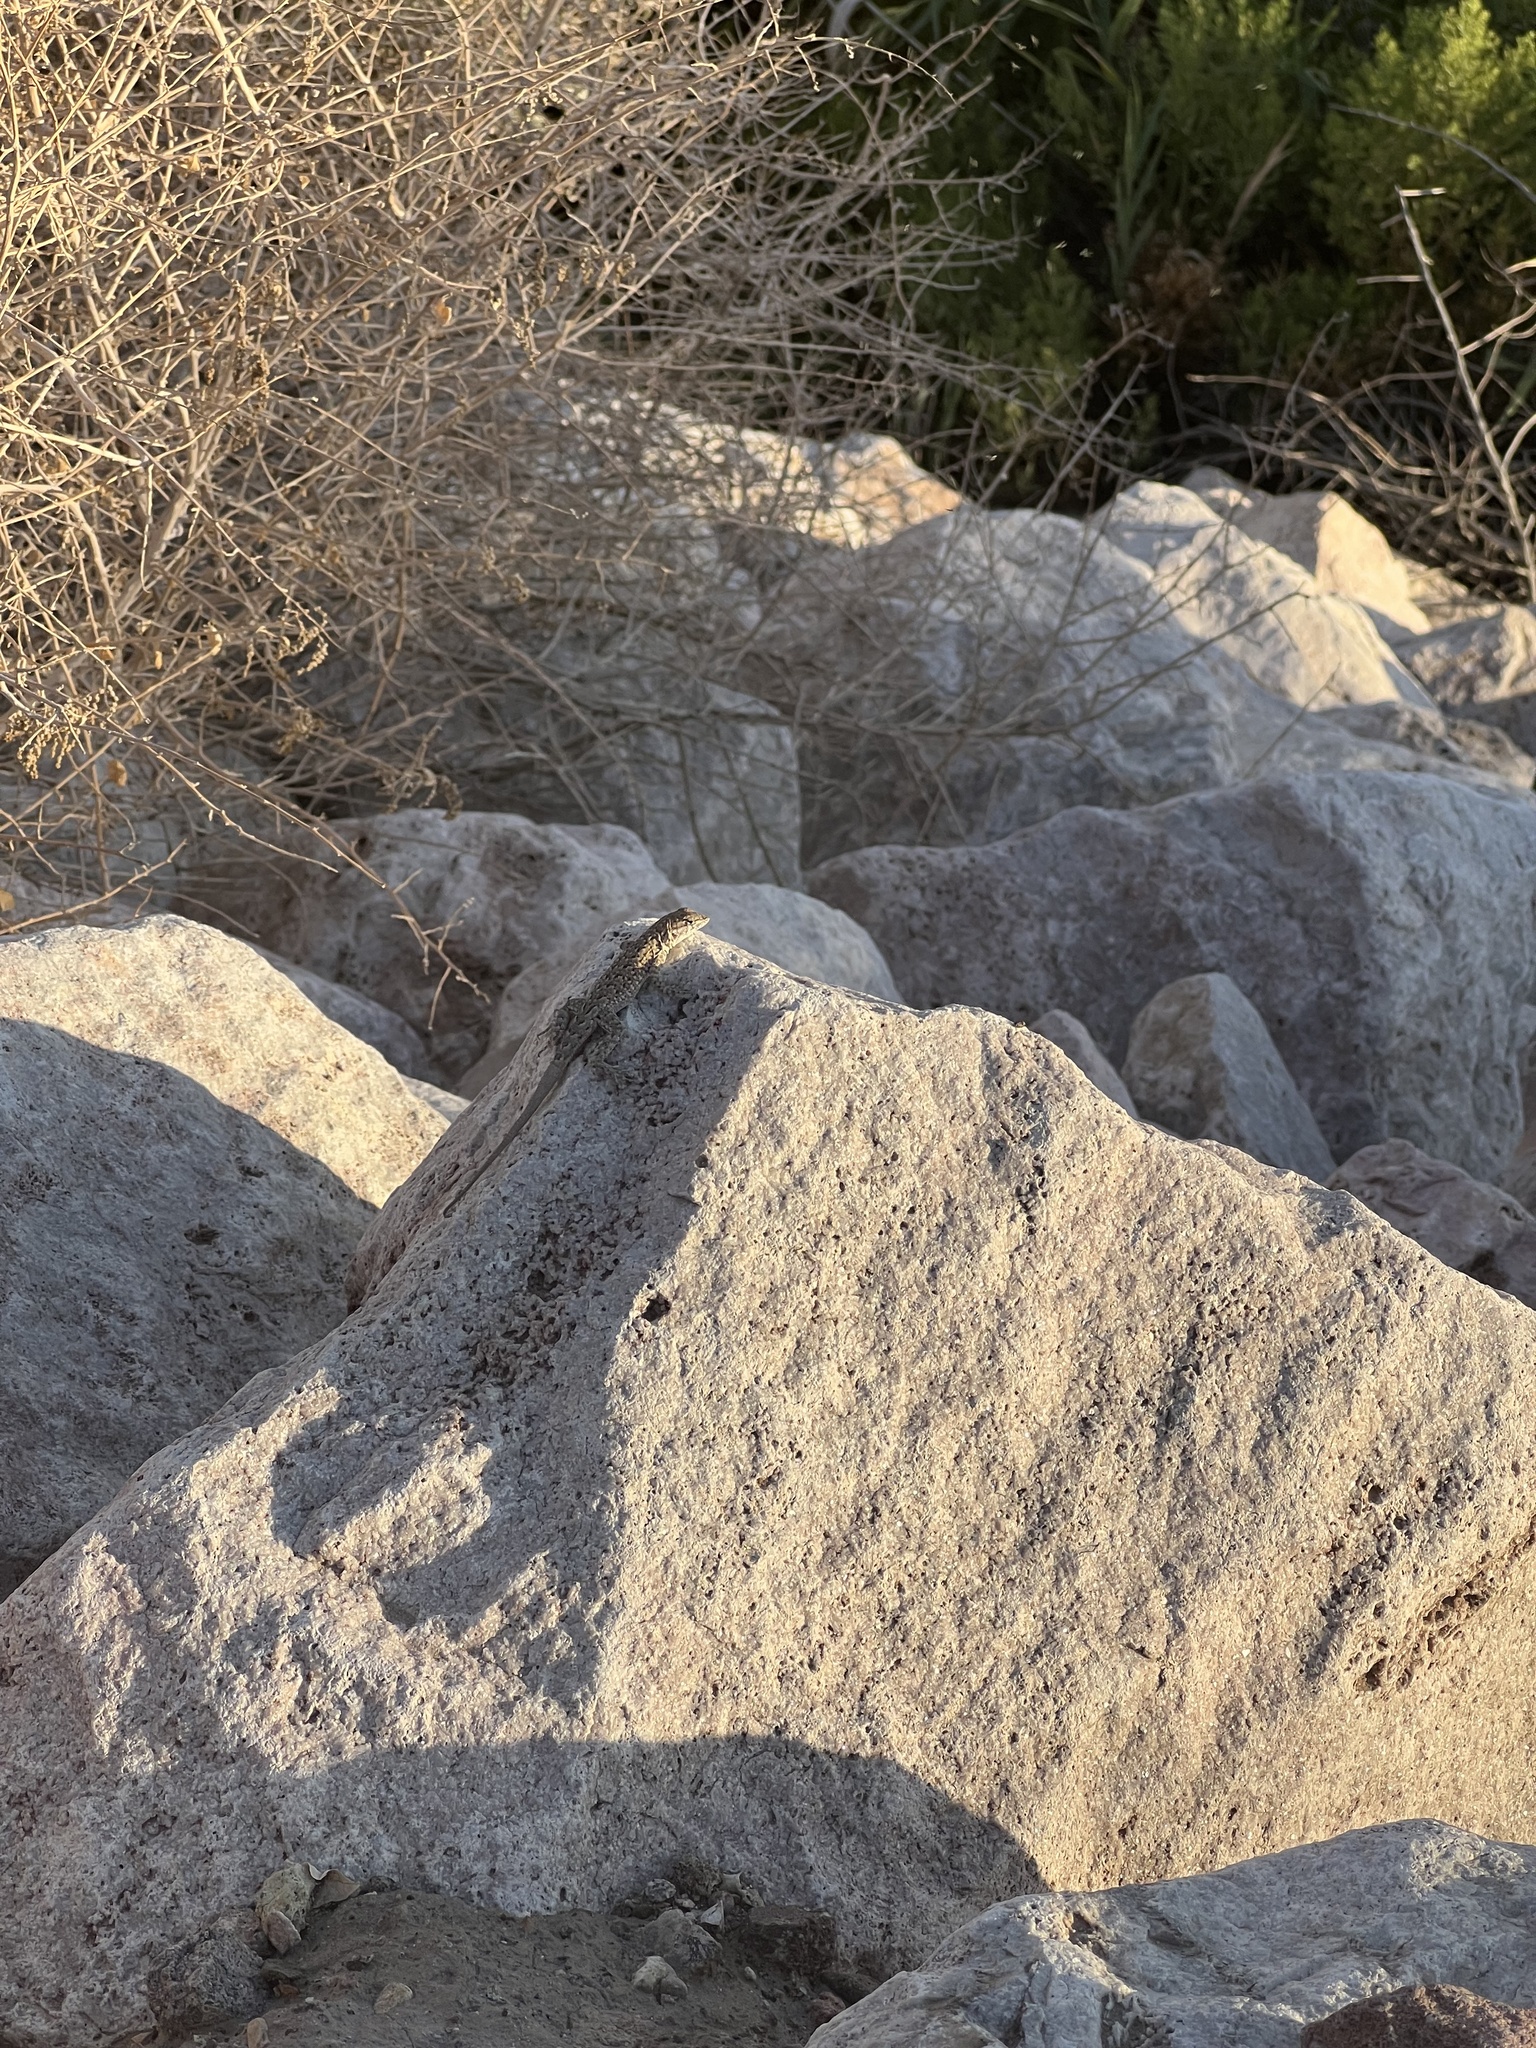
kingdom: Animalia
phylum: Chordata
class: Squamata
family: Phrynosomatidae
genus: Uta
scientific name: Uta stansburiana
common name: Side-blotched lizard
